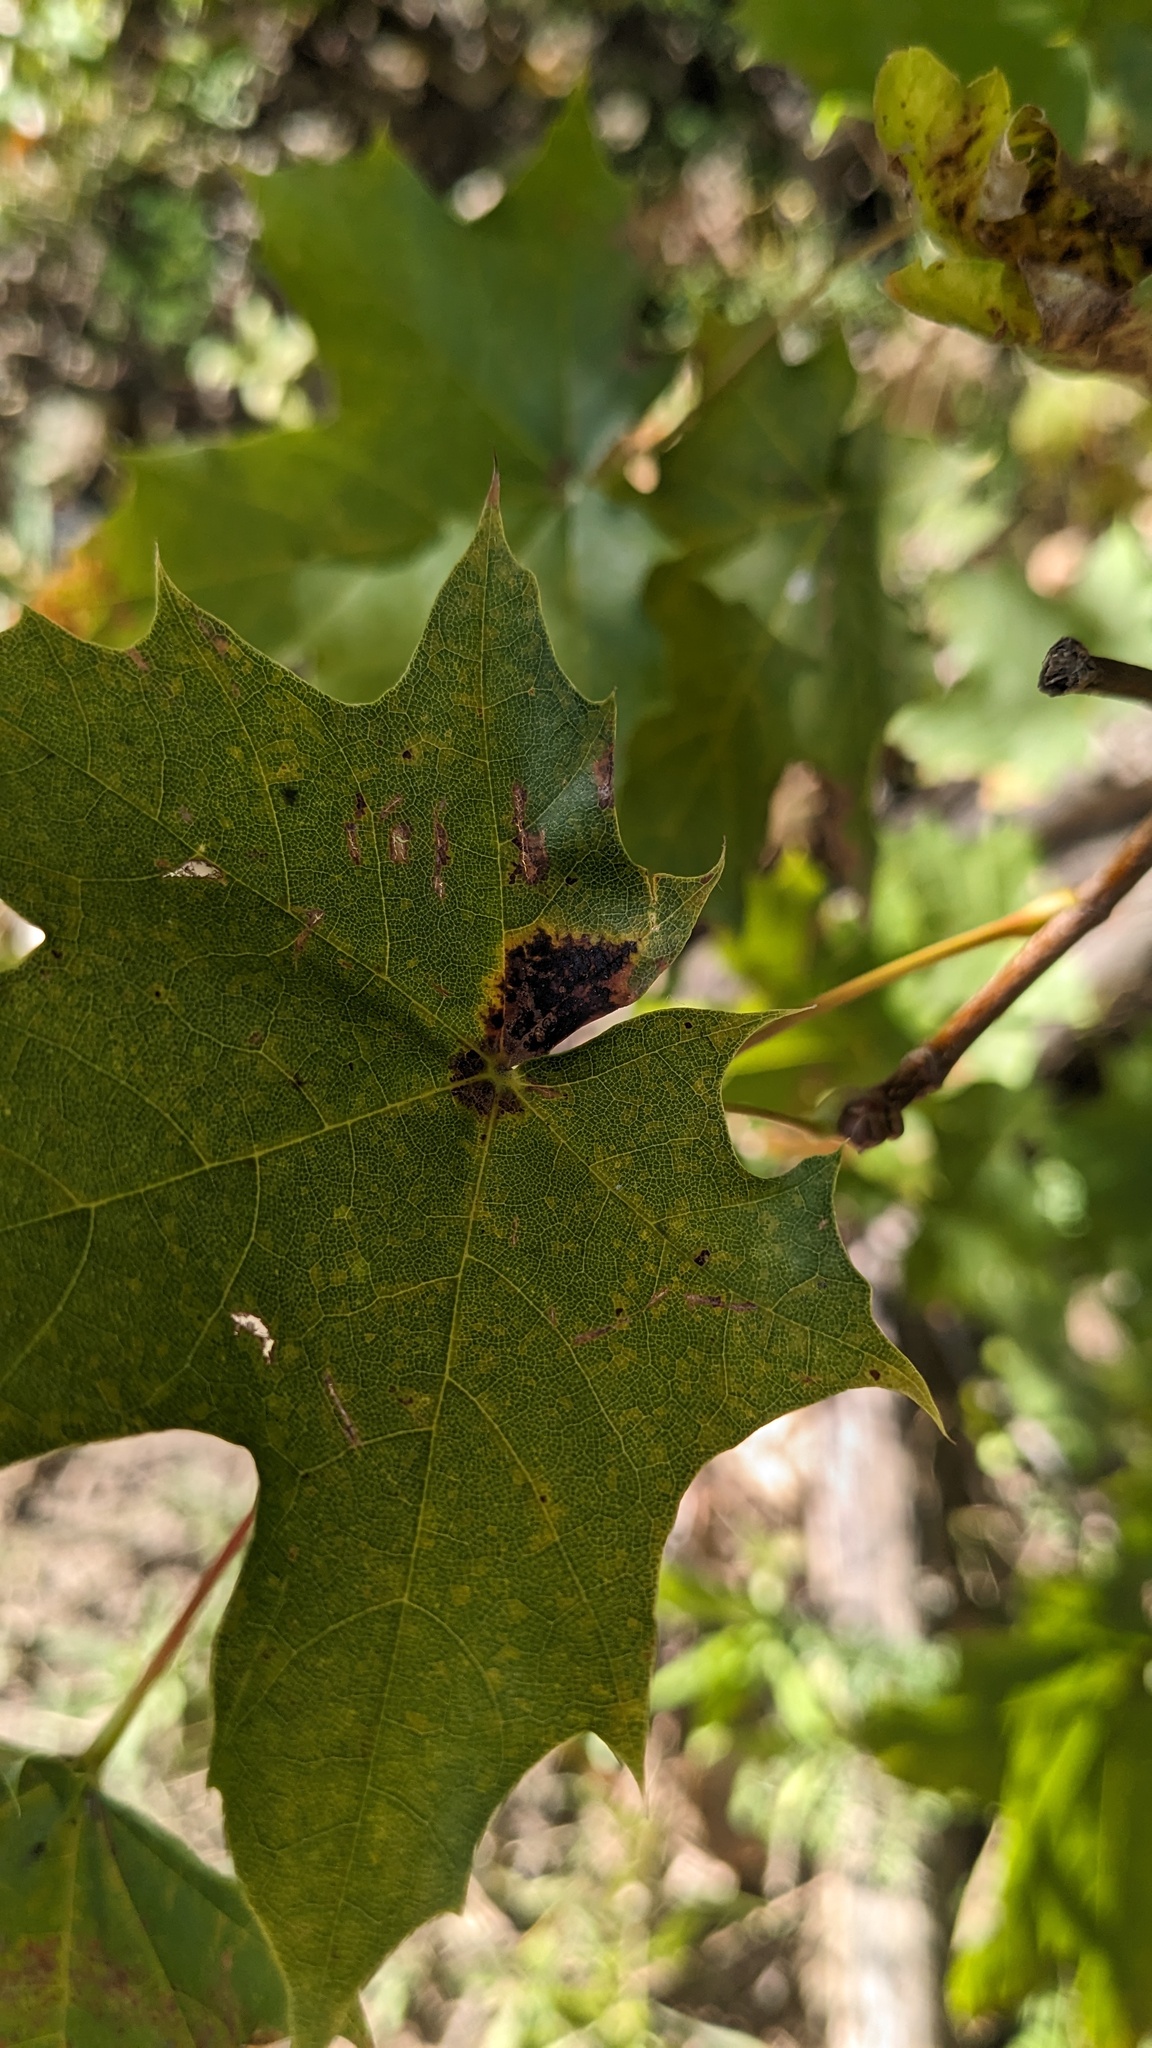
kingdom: Fungi
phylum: Ascomycota
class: Leotiomycetes
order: Rhytismatales
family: Rhytismataceae
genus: Rhytisma
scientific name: Rhytisma acerinum
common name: European tar spot
